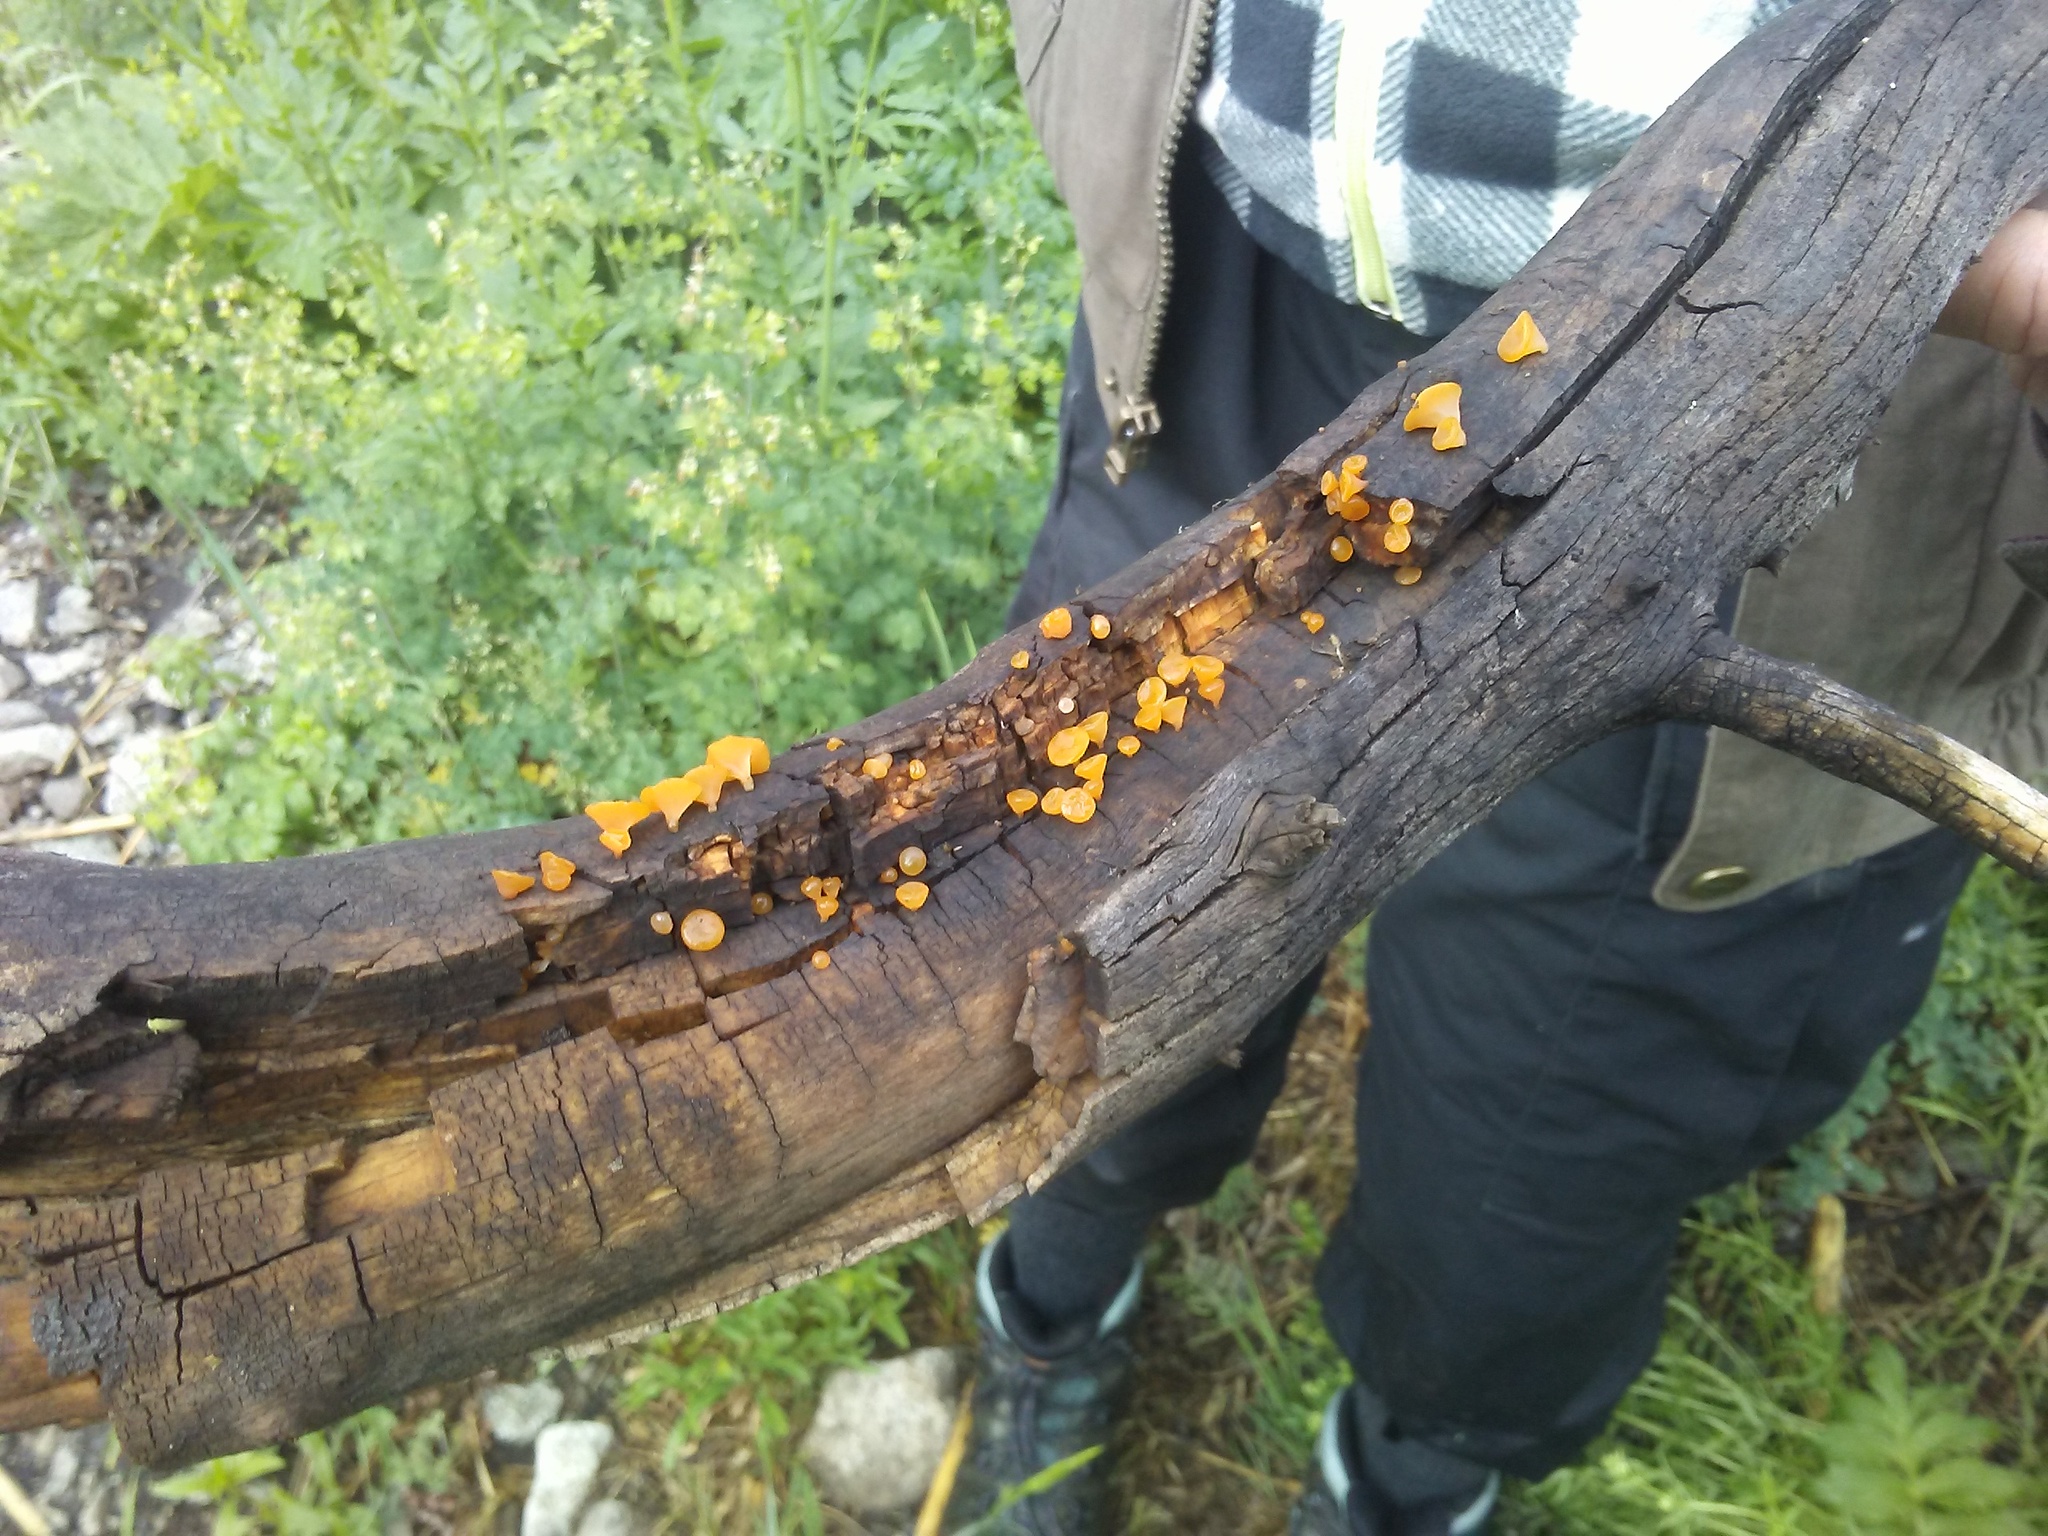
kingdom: Fungi
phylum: Basidiomycota
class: Dacrymycetes
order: Dacrymycetales
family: Dacrymycetaceae
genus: Guepiniopsis
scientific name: Guepiniopsis alpina
